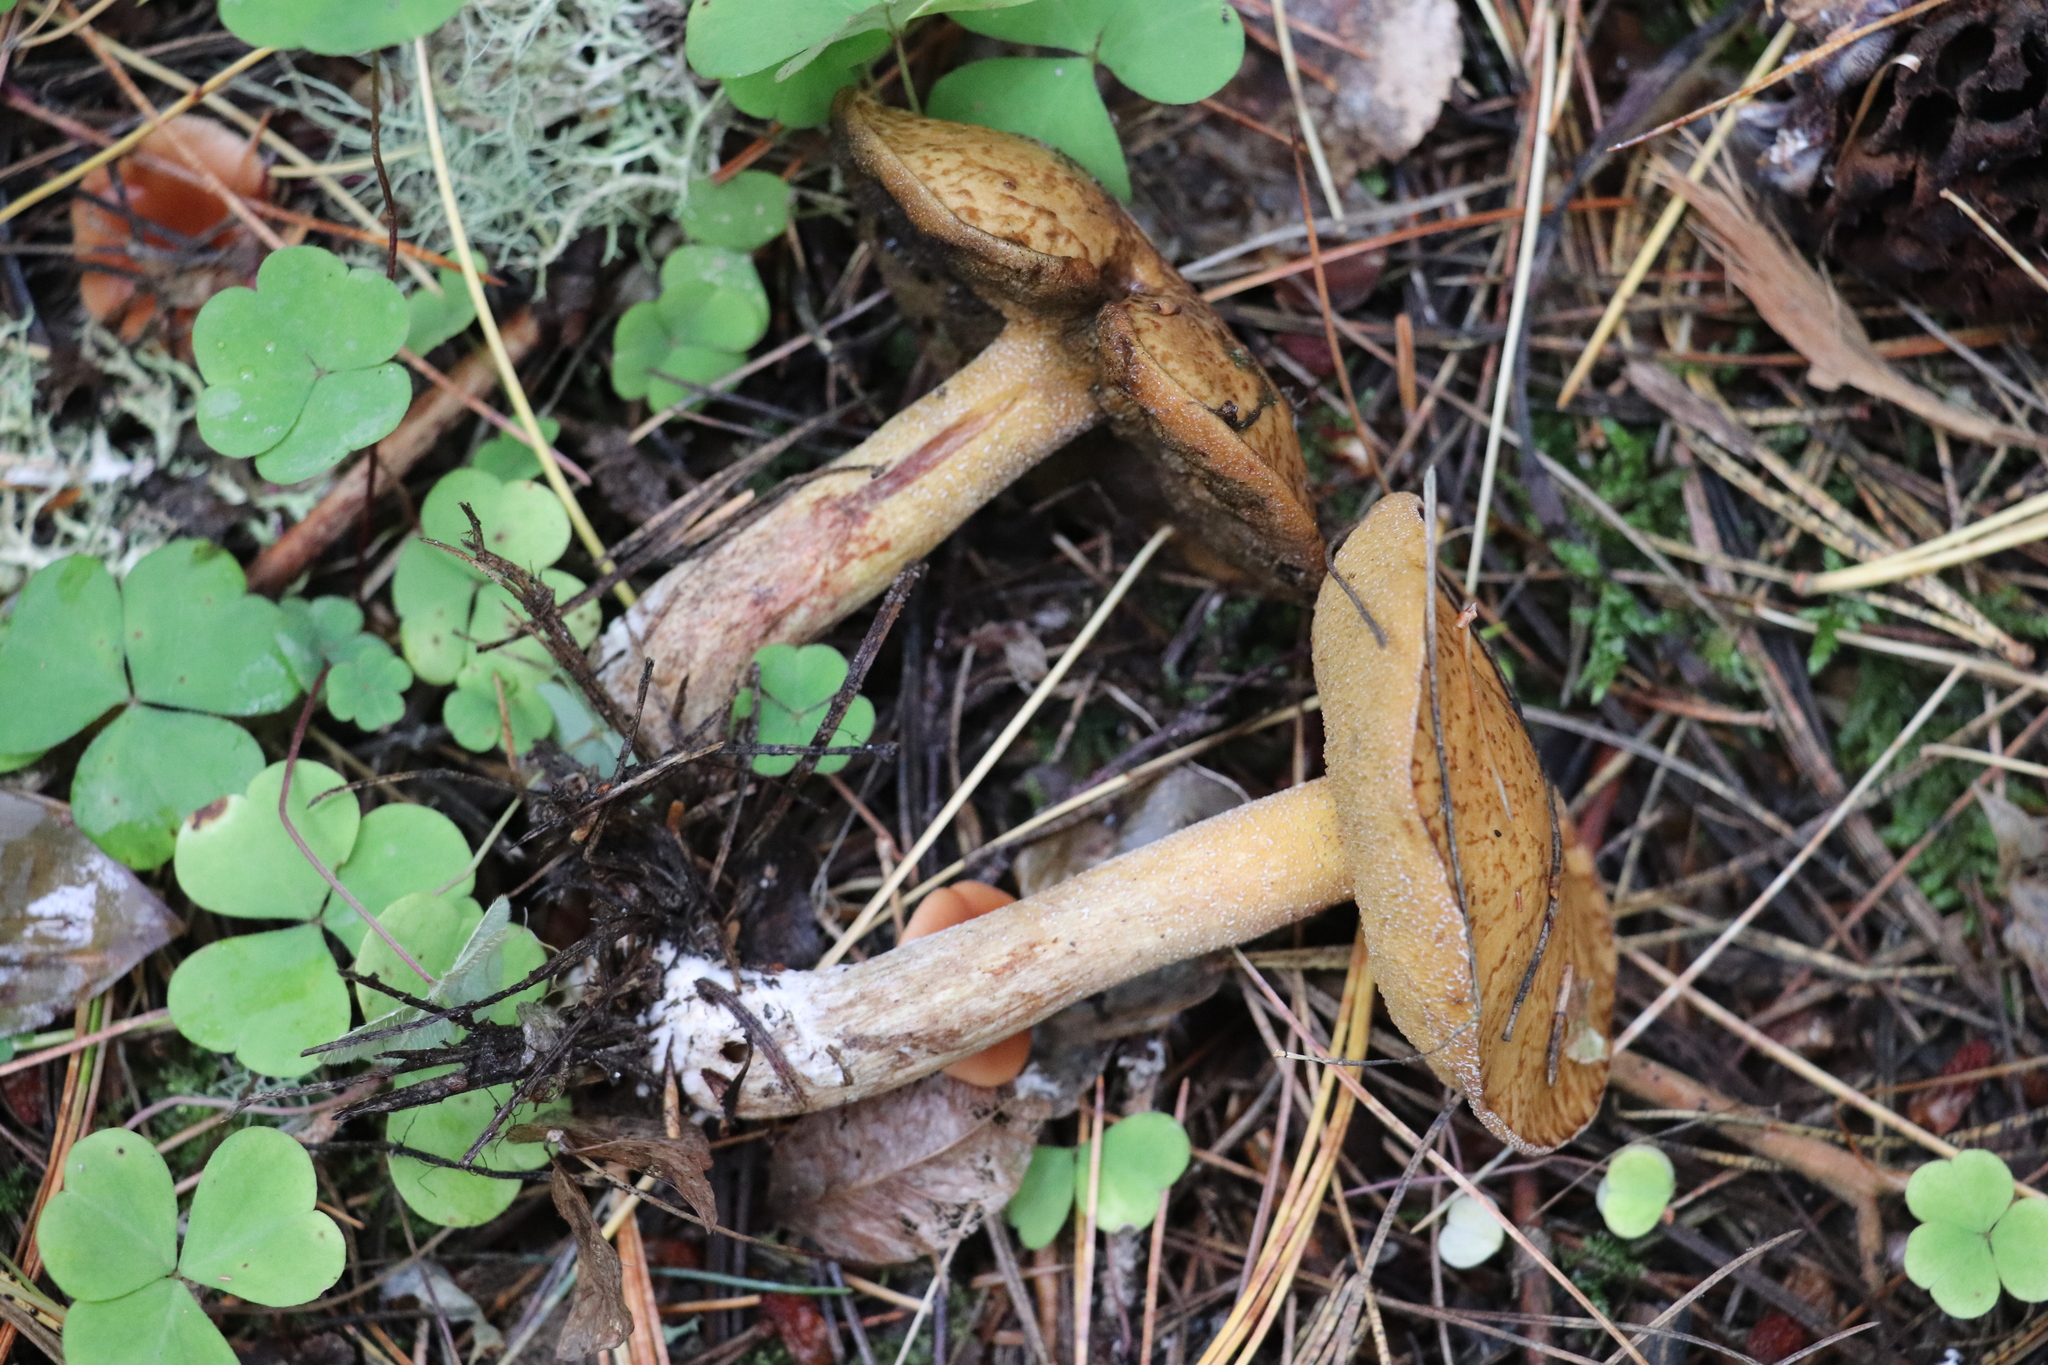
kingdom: Fungi
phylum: Basidiomycota
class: Agaricomycetes
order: Boletales
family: Suillaceae
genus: Suillus
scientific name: Suillus punctipes
